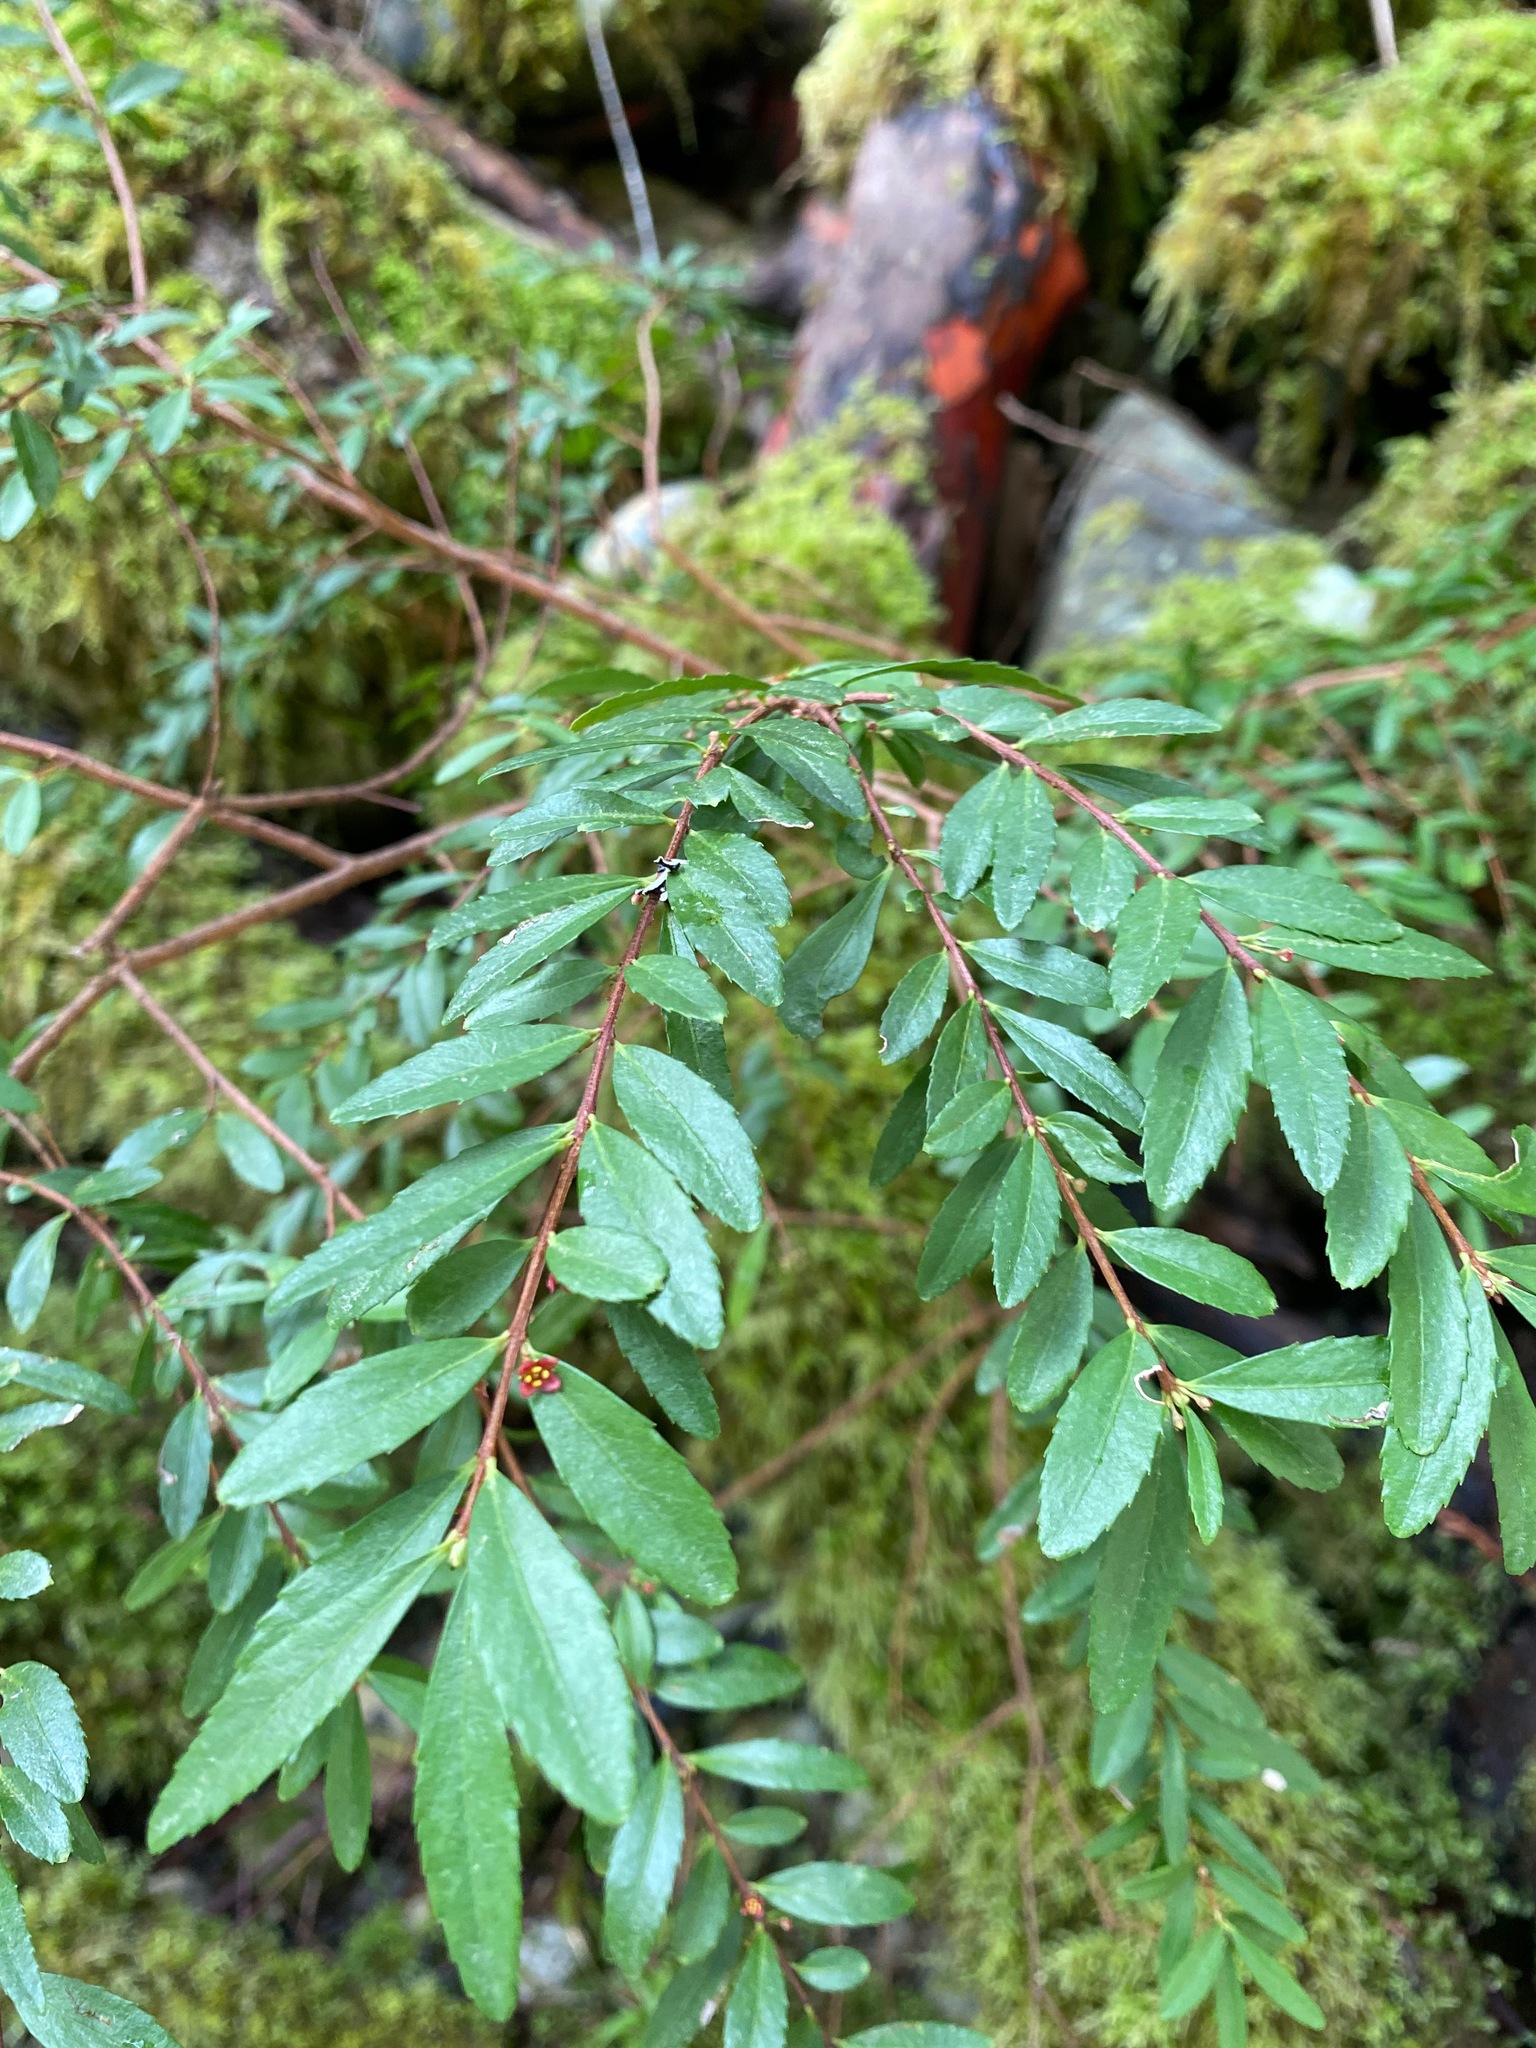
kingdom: Plantae
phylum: Tracheophyta
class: Magnoliopsida
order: Celastrales
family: Celastraceae
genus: Paxistima
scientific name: Paxistima myrsinites
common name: Mountain-lover
